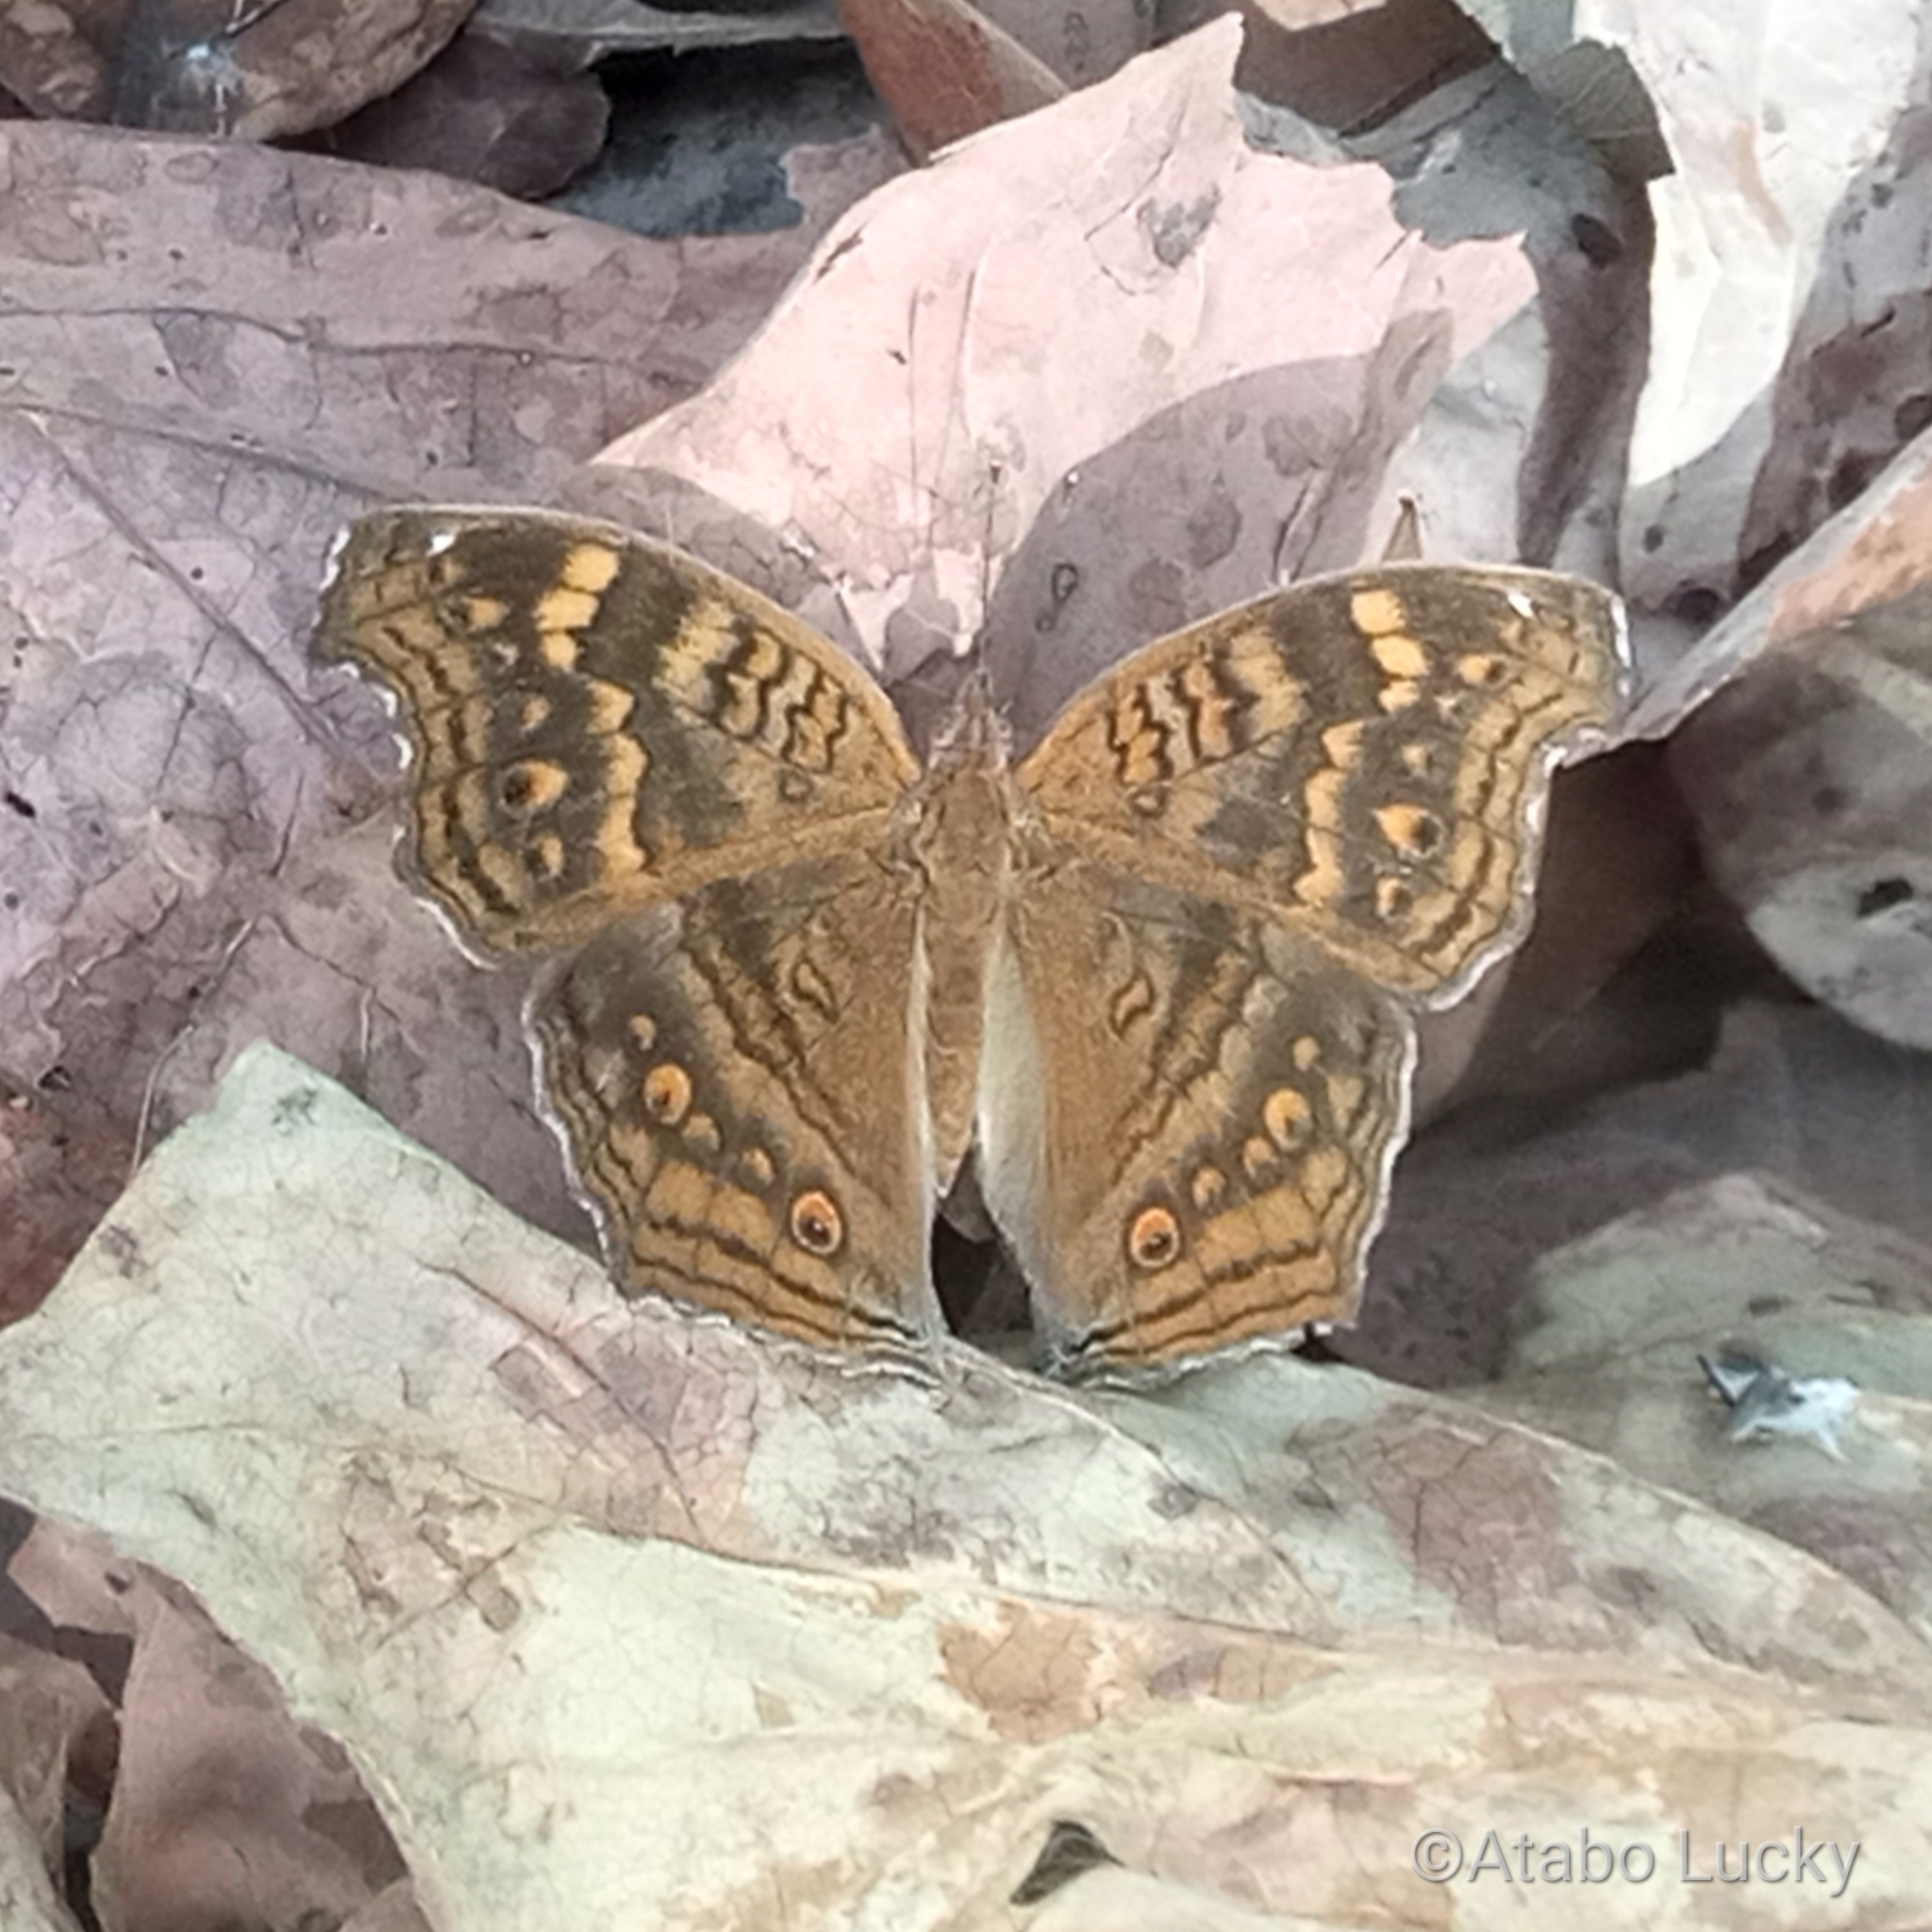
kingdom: Animalia
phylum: Arthropoda
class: Insecta
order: Lepidoptera
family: Nymphalidae
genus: Junonia
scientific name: Junonia chorimene
